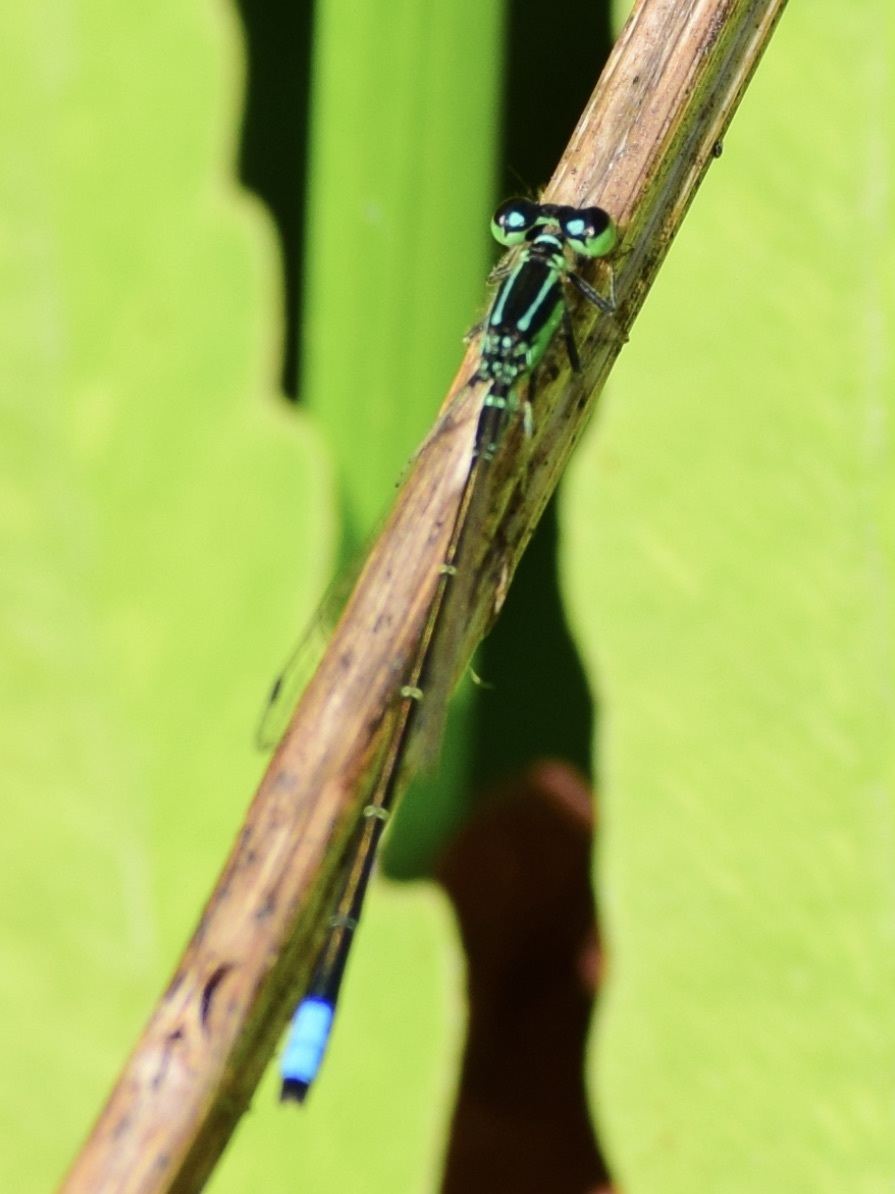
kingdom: Animalia
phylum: Arthropoda
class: Insecta
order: Odonata
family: Coenagrionidae
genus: Ischnura
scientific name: Ischnura verticalis
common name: Eastern forktail
